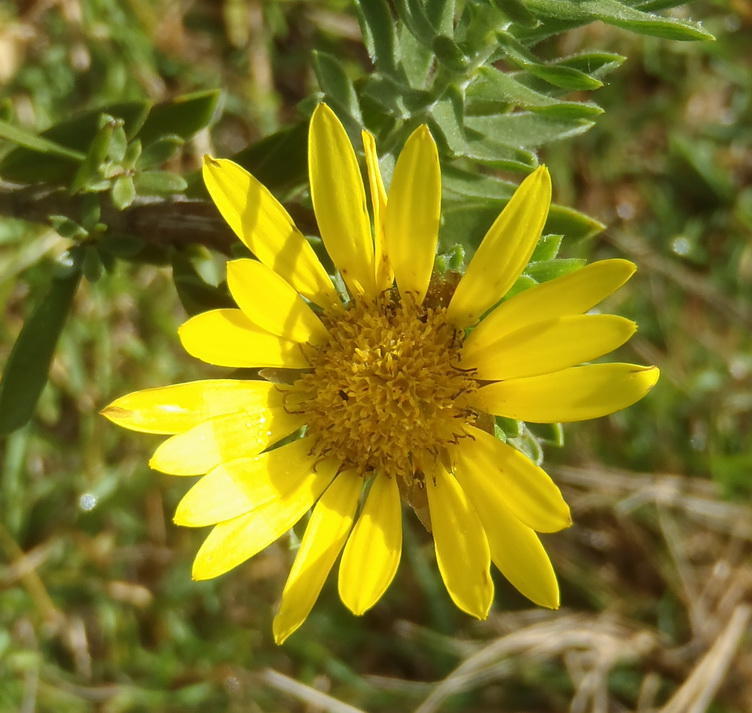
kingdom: Plantae
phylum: Tracheophyta
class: Magnoliopsida
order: Asterales
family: Asteraceae
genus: Oedera
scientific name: Oedera calycina
